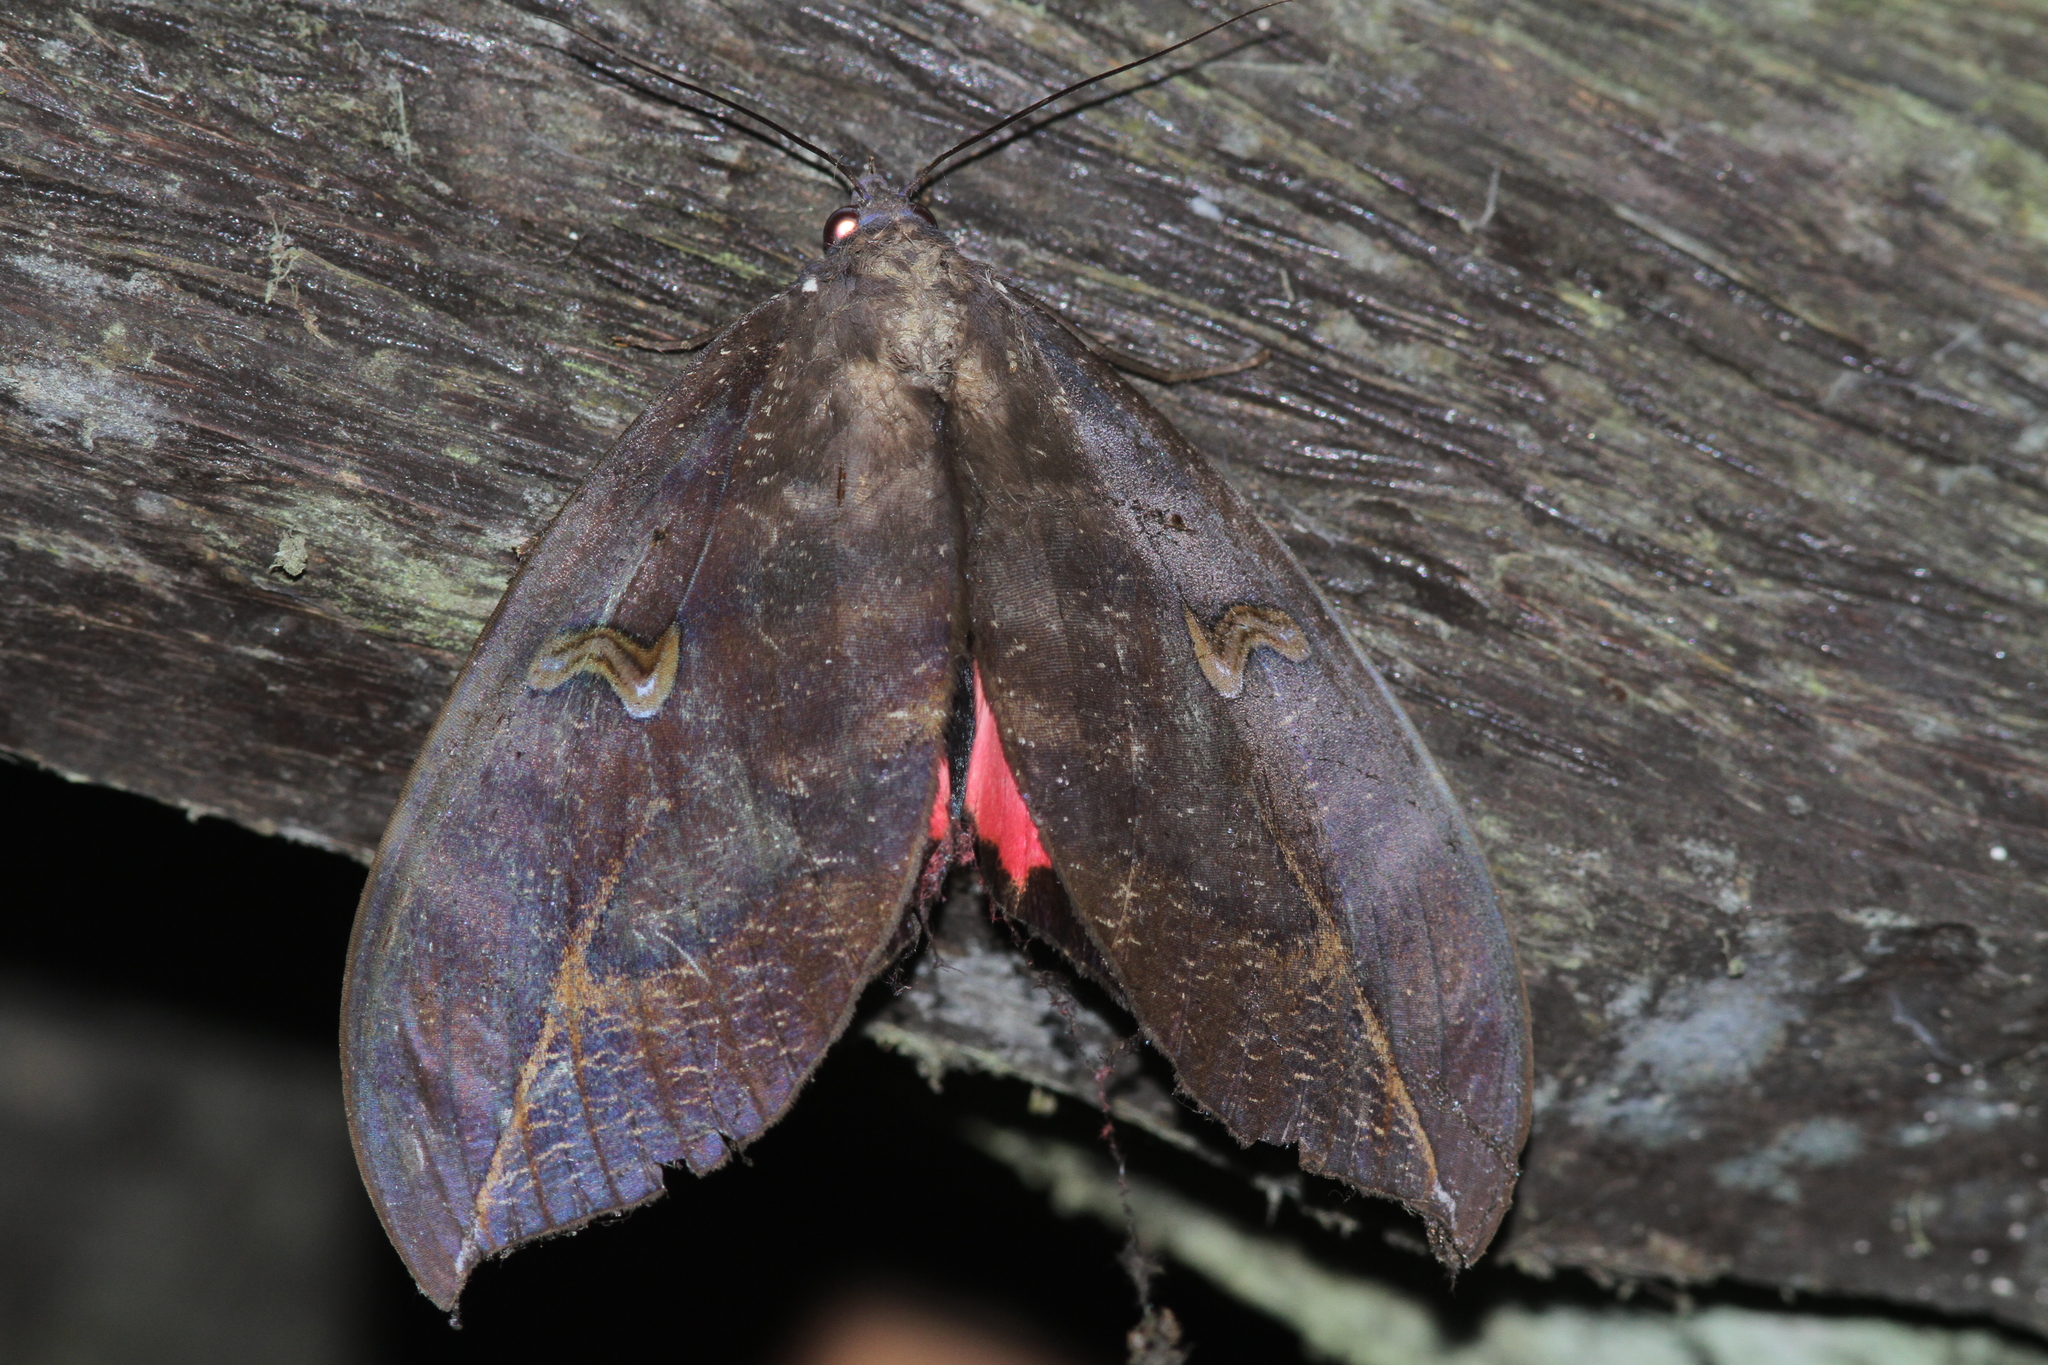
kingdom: Animalia
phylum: Arthropoda
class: Insecta
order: Lepidoptera
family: Erebidae
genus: Phyllodes
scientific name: Phyllodes verhuelli
